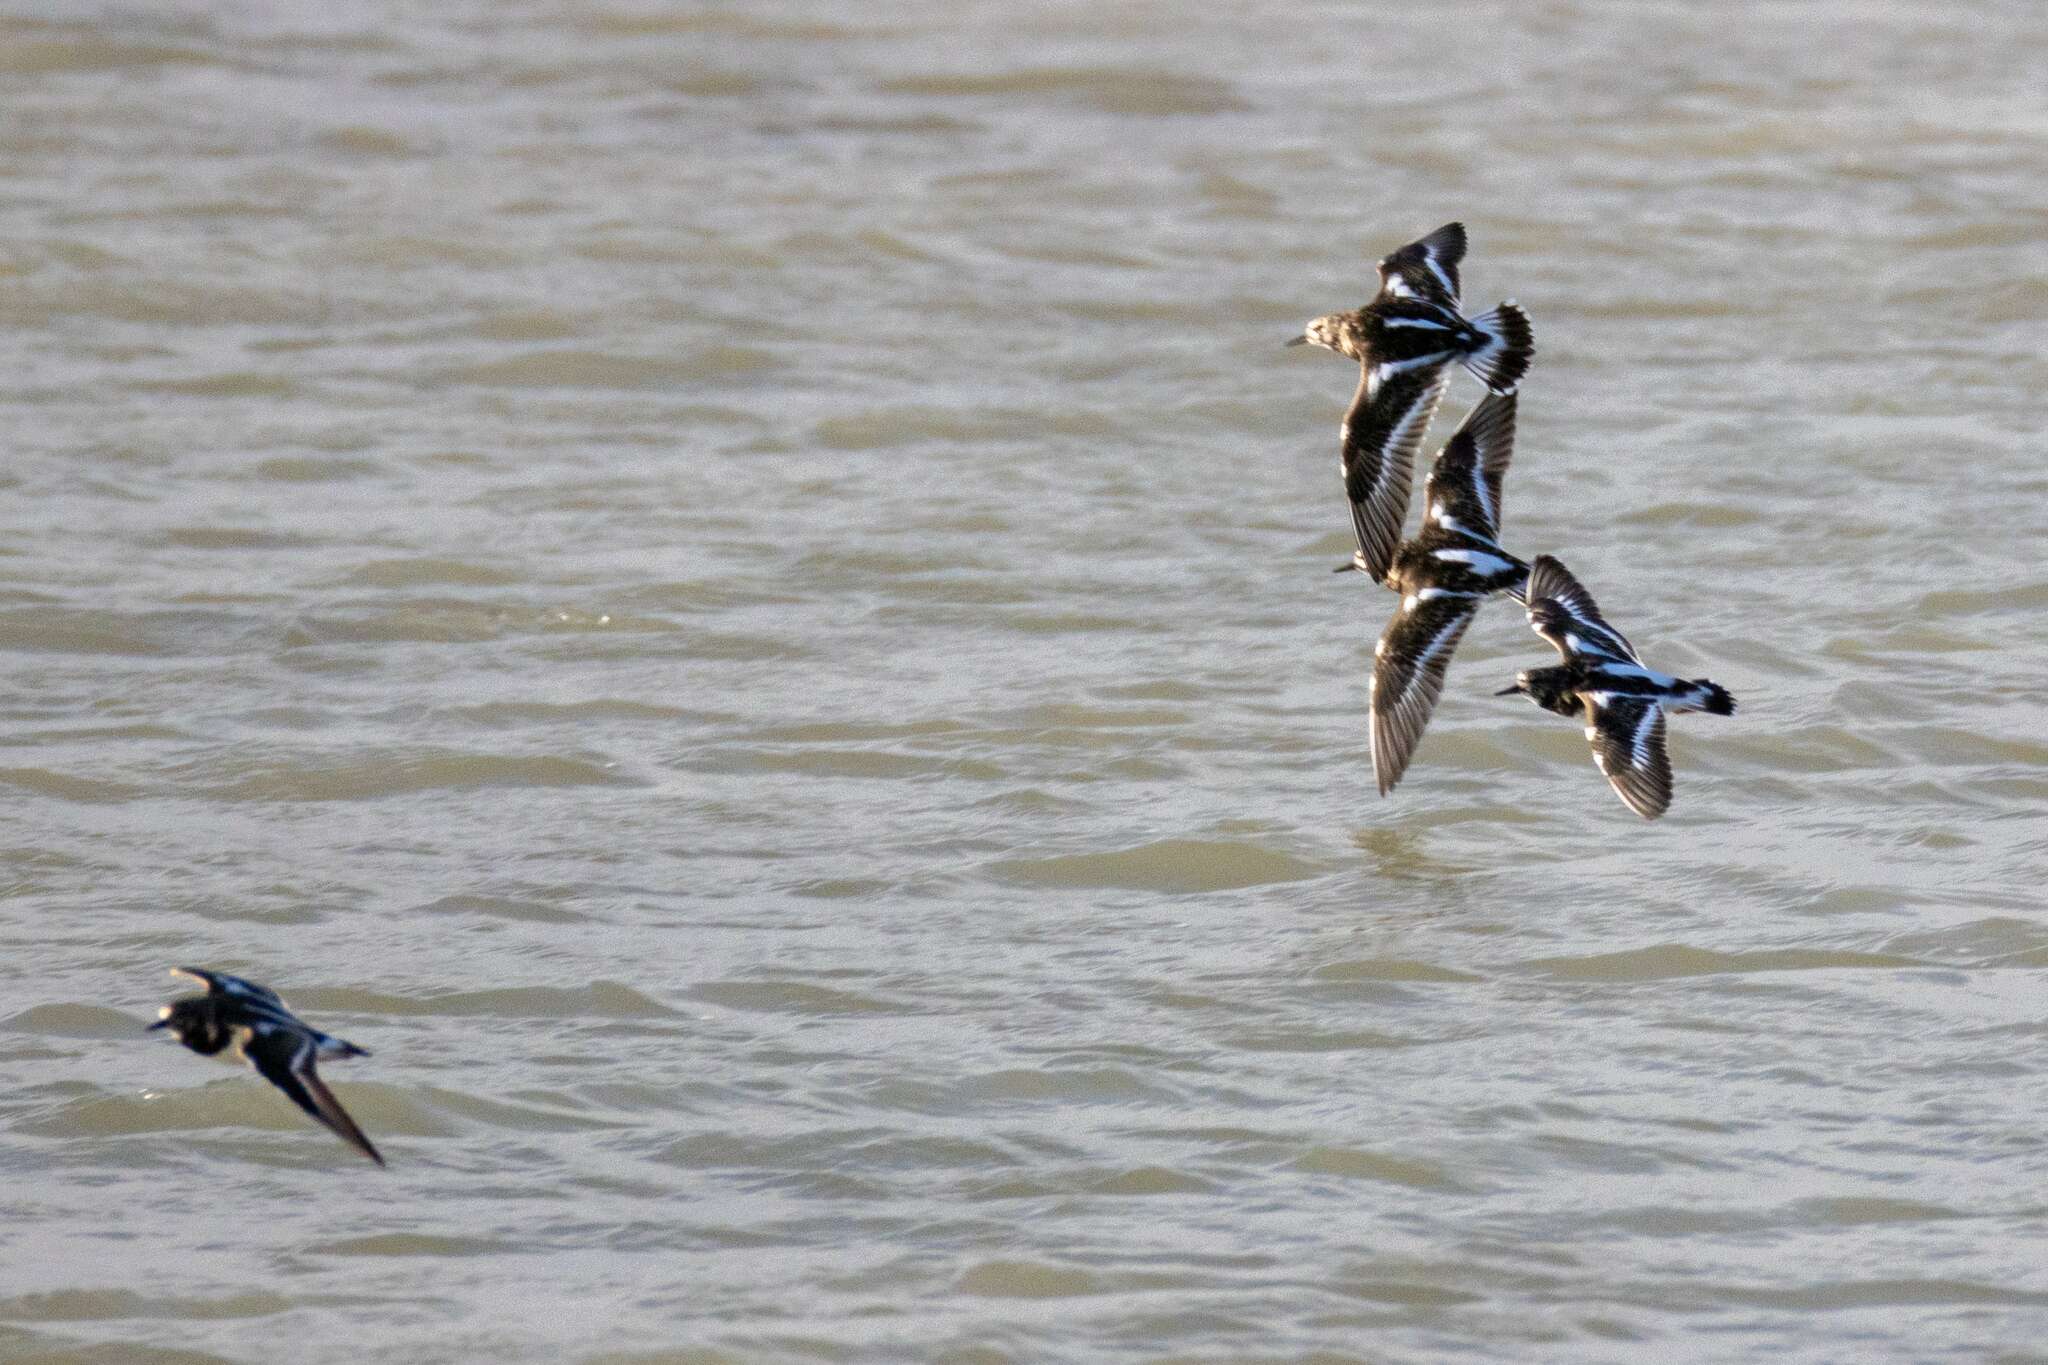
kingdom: Animalia
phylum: Chordata
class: Aves
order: Charadriiformes
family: Scolopacidae
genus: Arenaria
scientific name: Arenaria interpres
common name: Ruddy turnstone
